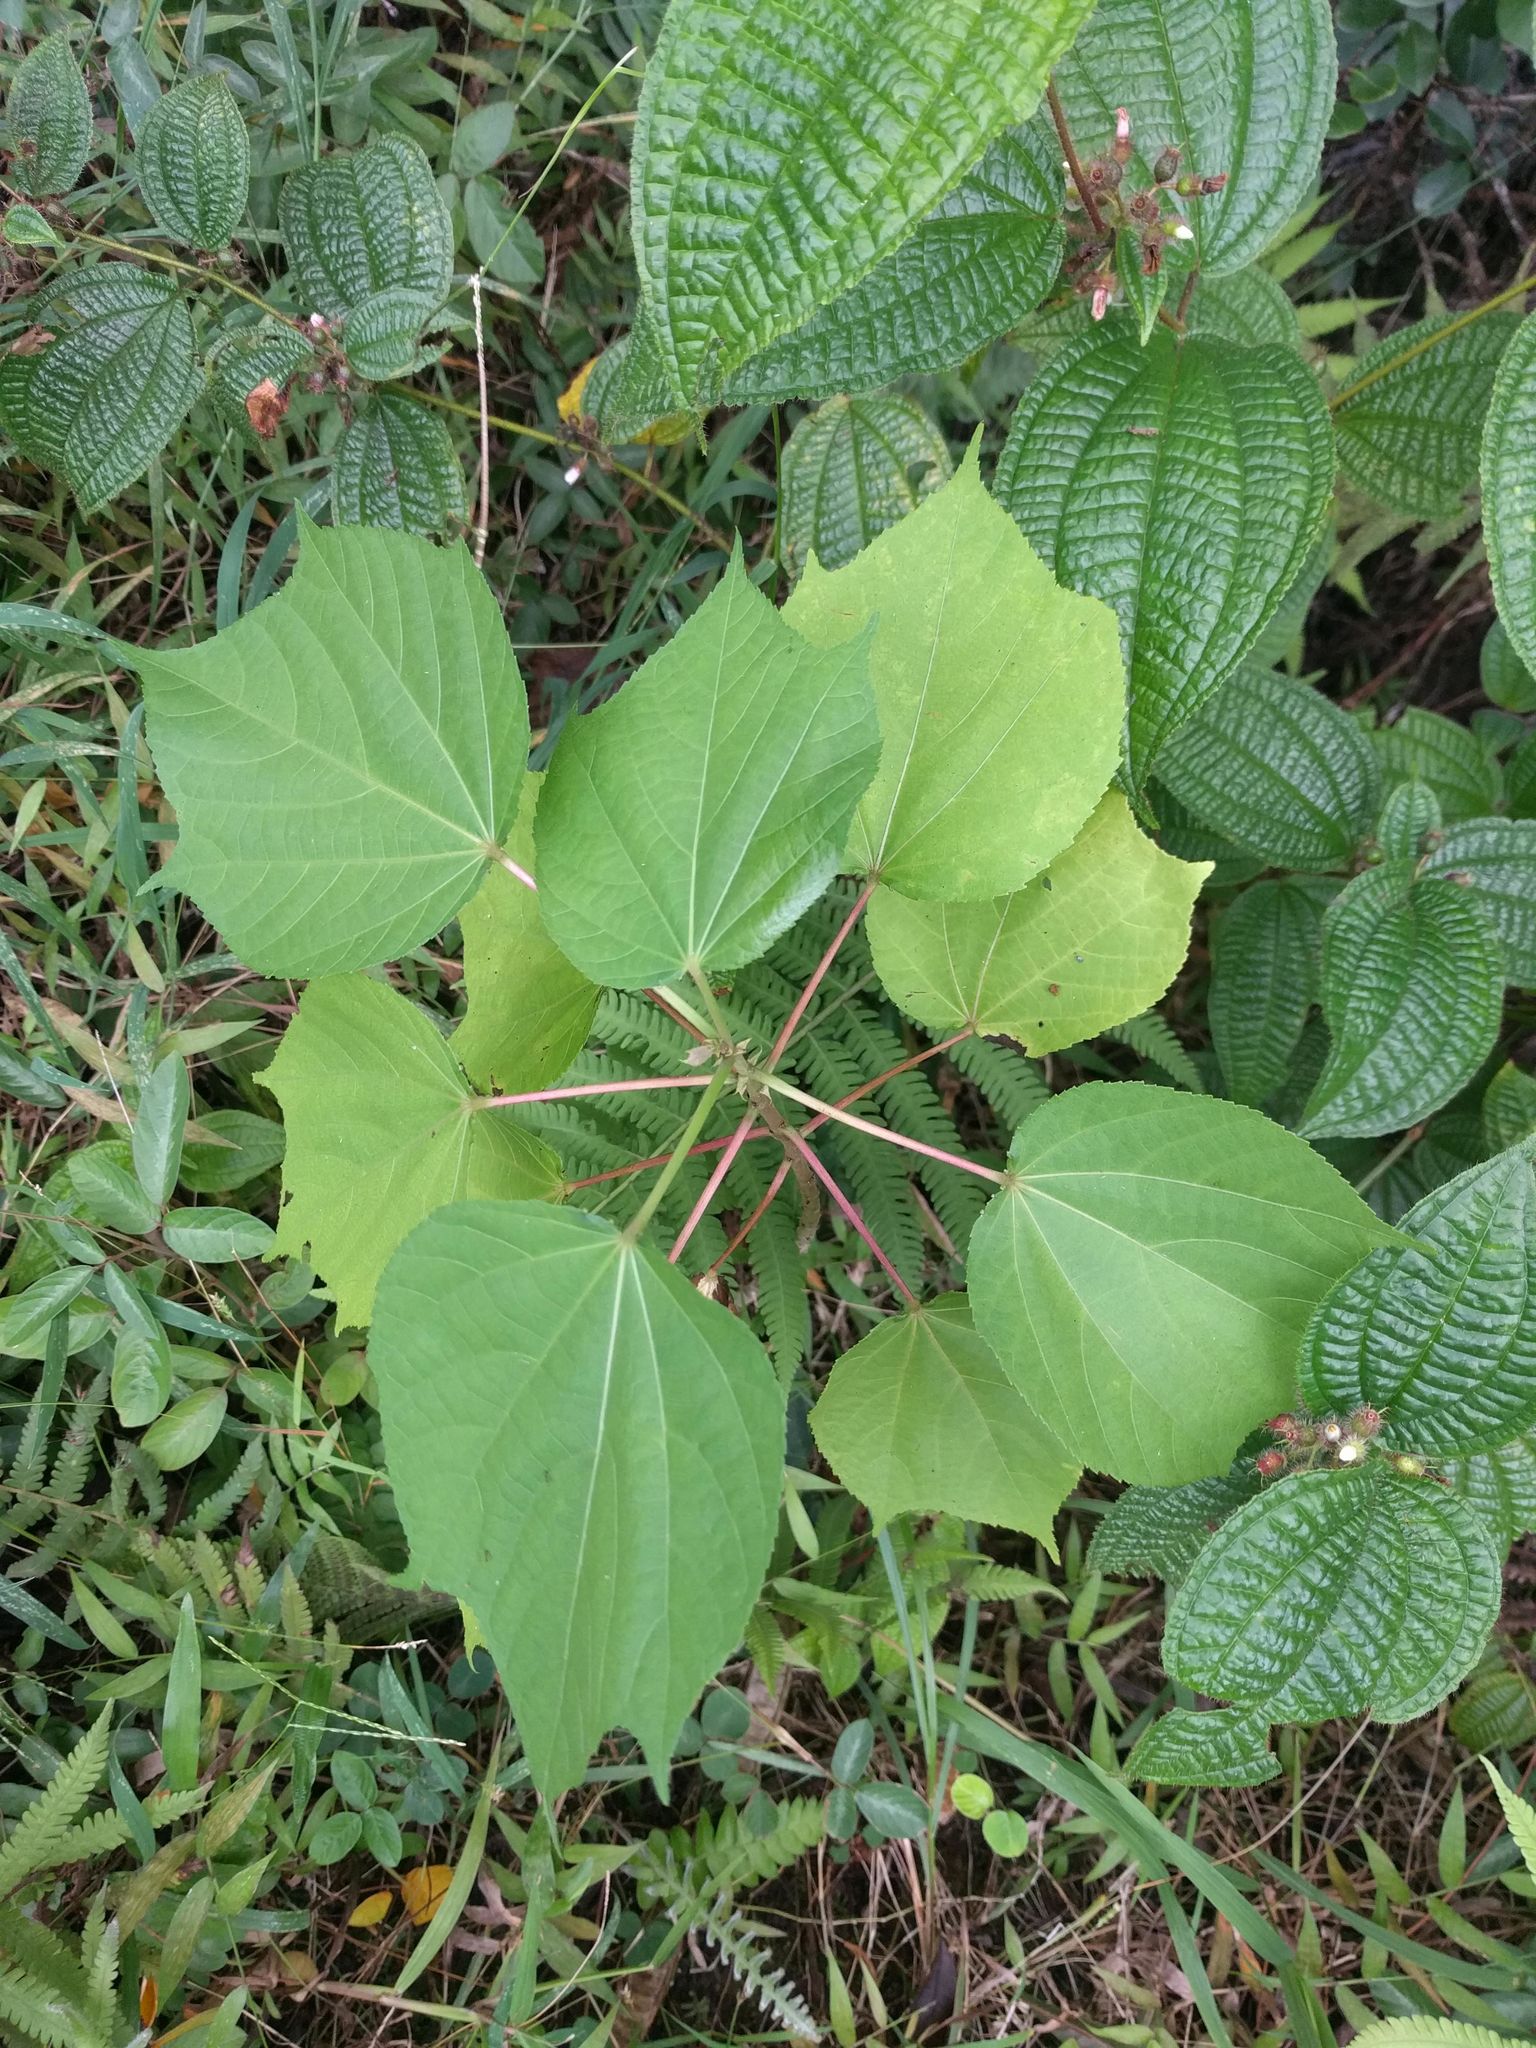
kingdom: Plantae
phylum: Tracheophyta
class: Magnoliopsida
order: Malvales
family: Malvaceae
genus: Heliocarpus
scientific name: Heliocarpus americanus
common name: White moho
